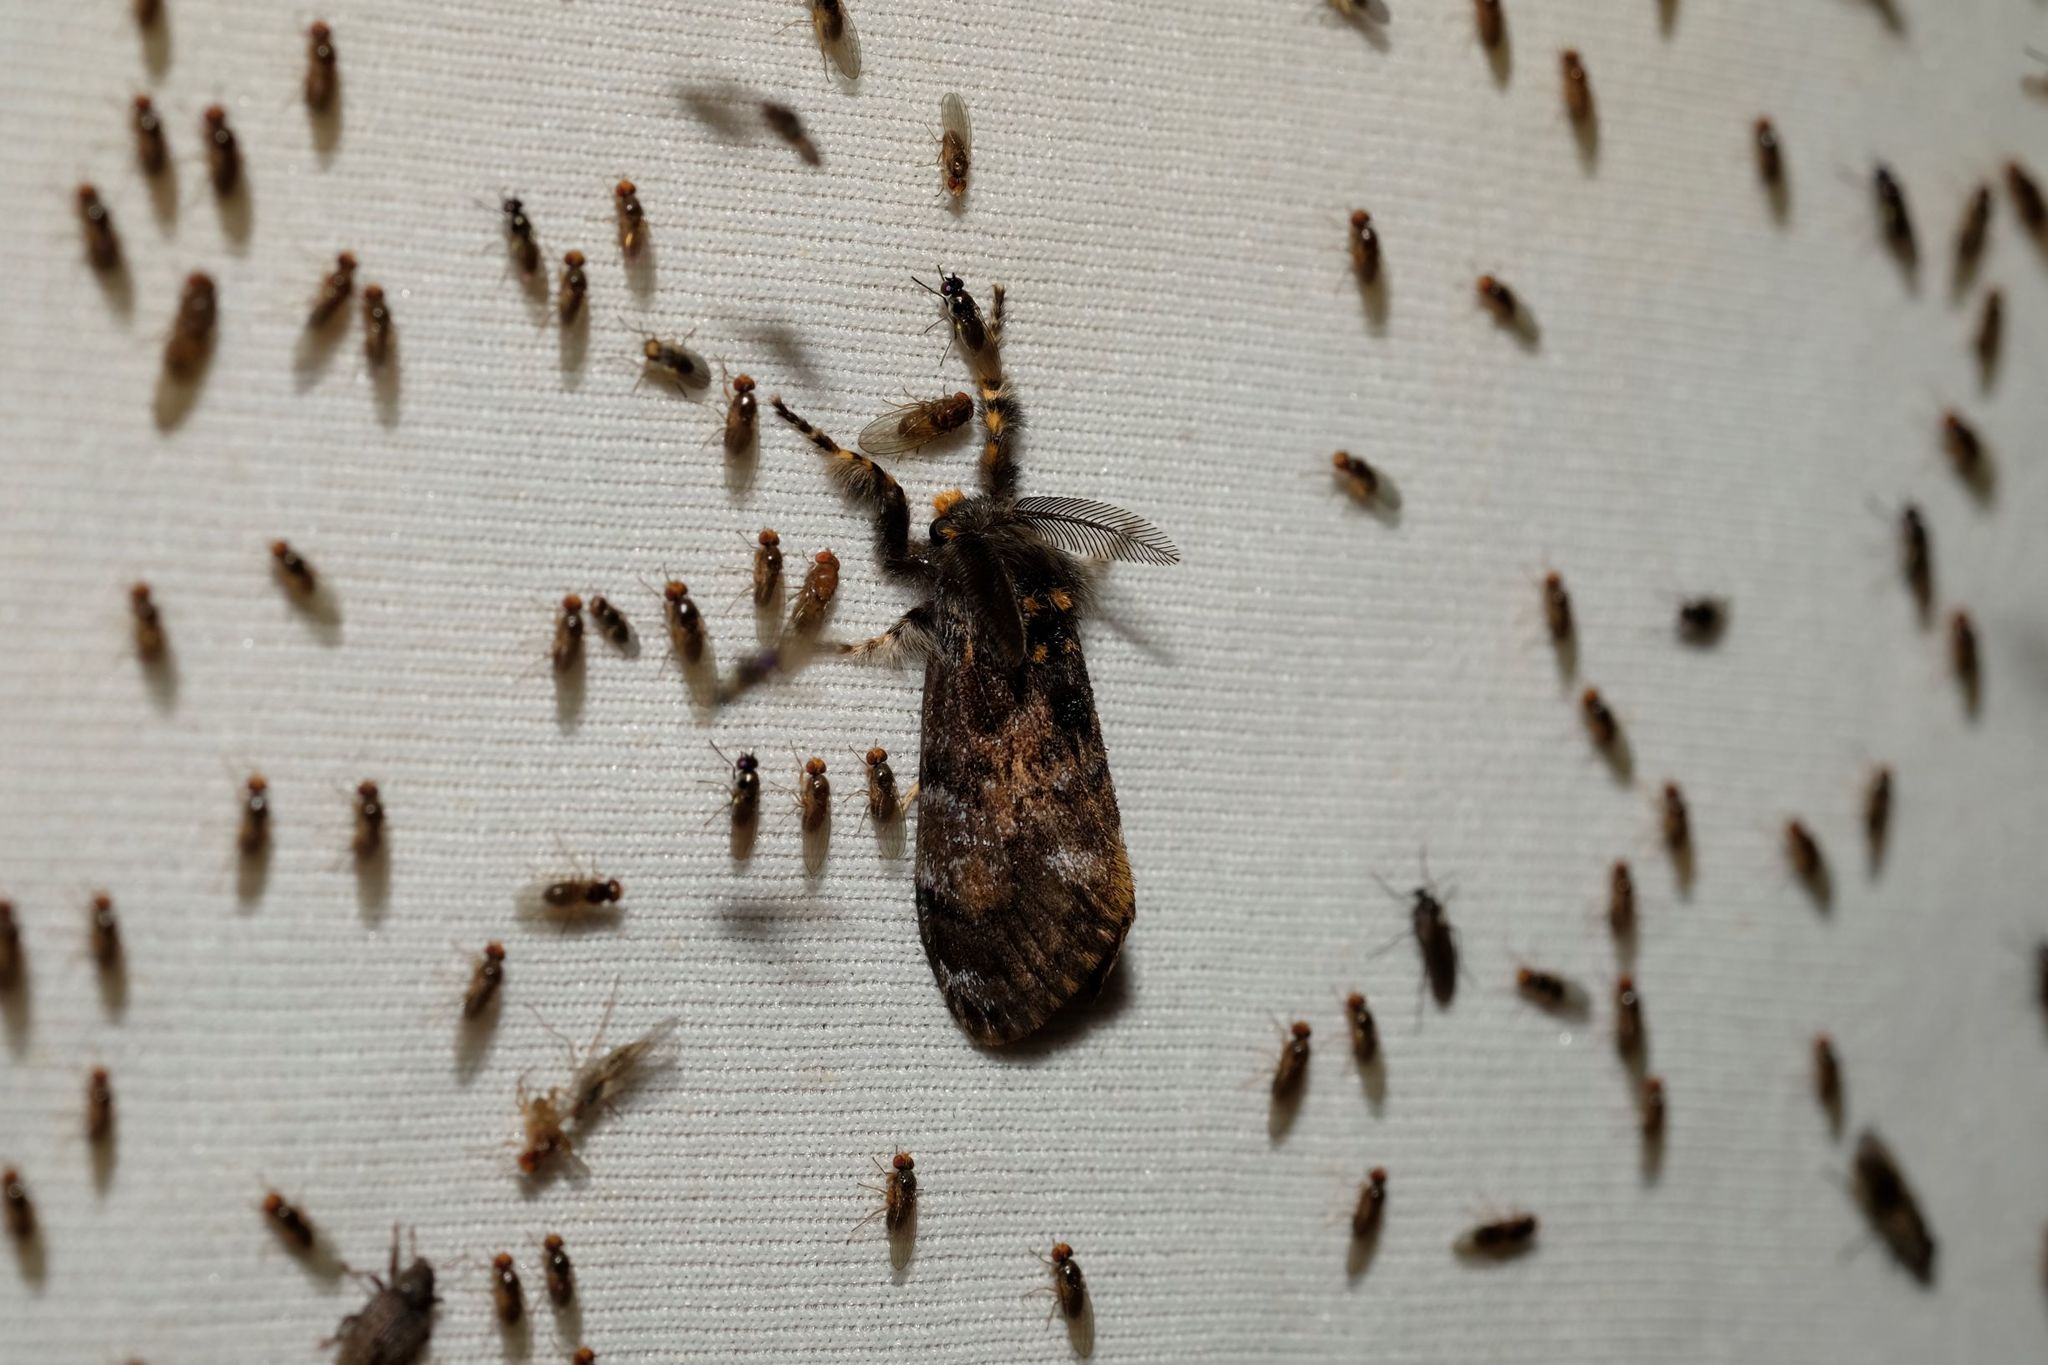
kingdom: Animalia
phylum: Arthropoda
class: Insecta
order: Lepidoptera
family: Erebidae
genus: Orgyia
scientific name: Orgyia
